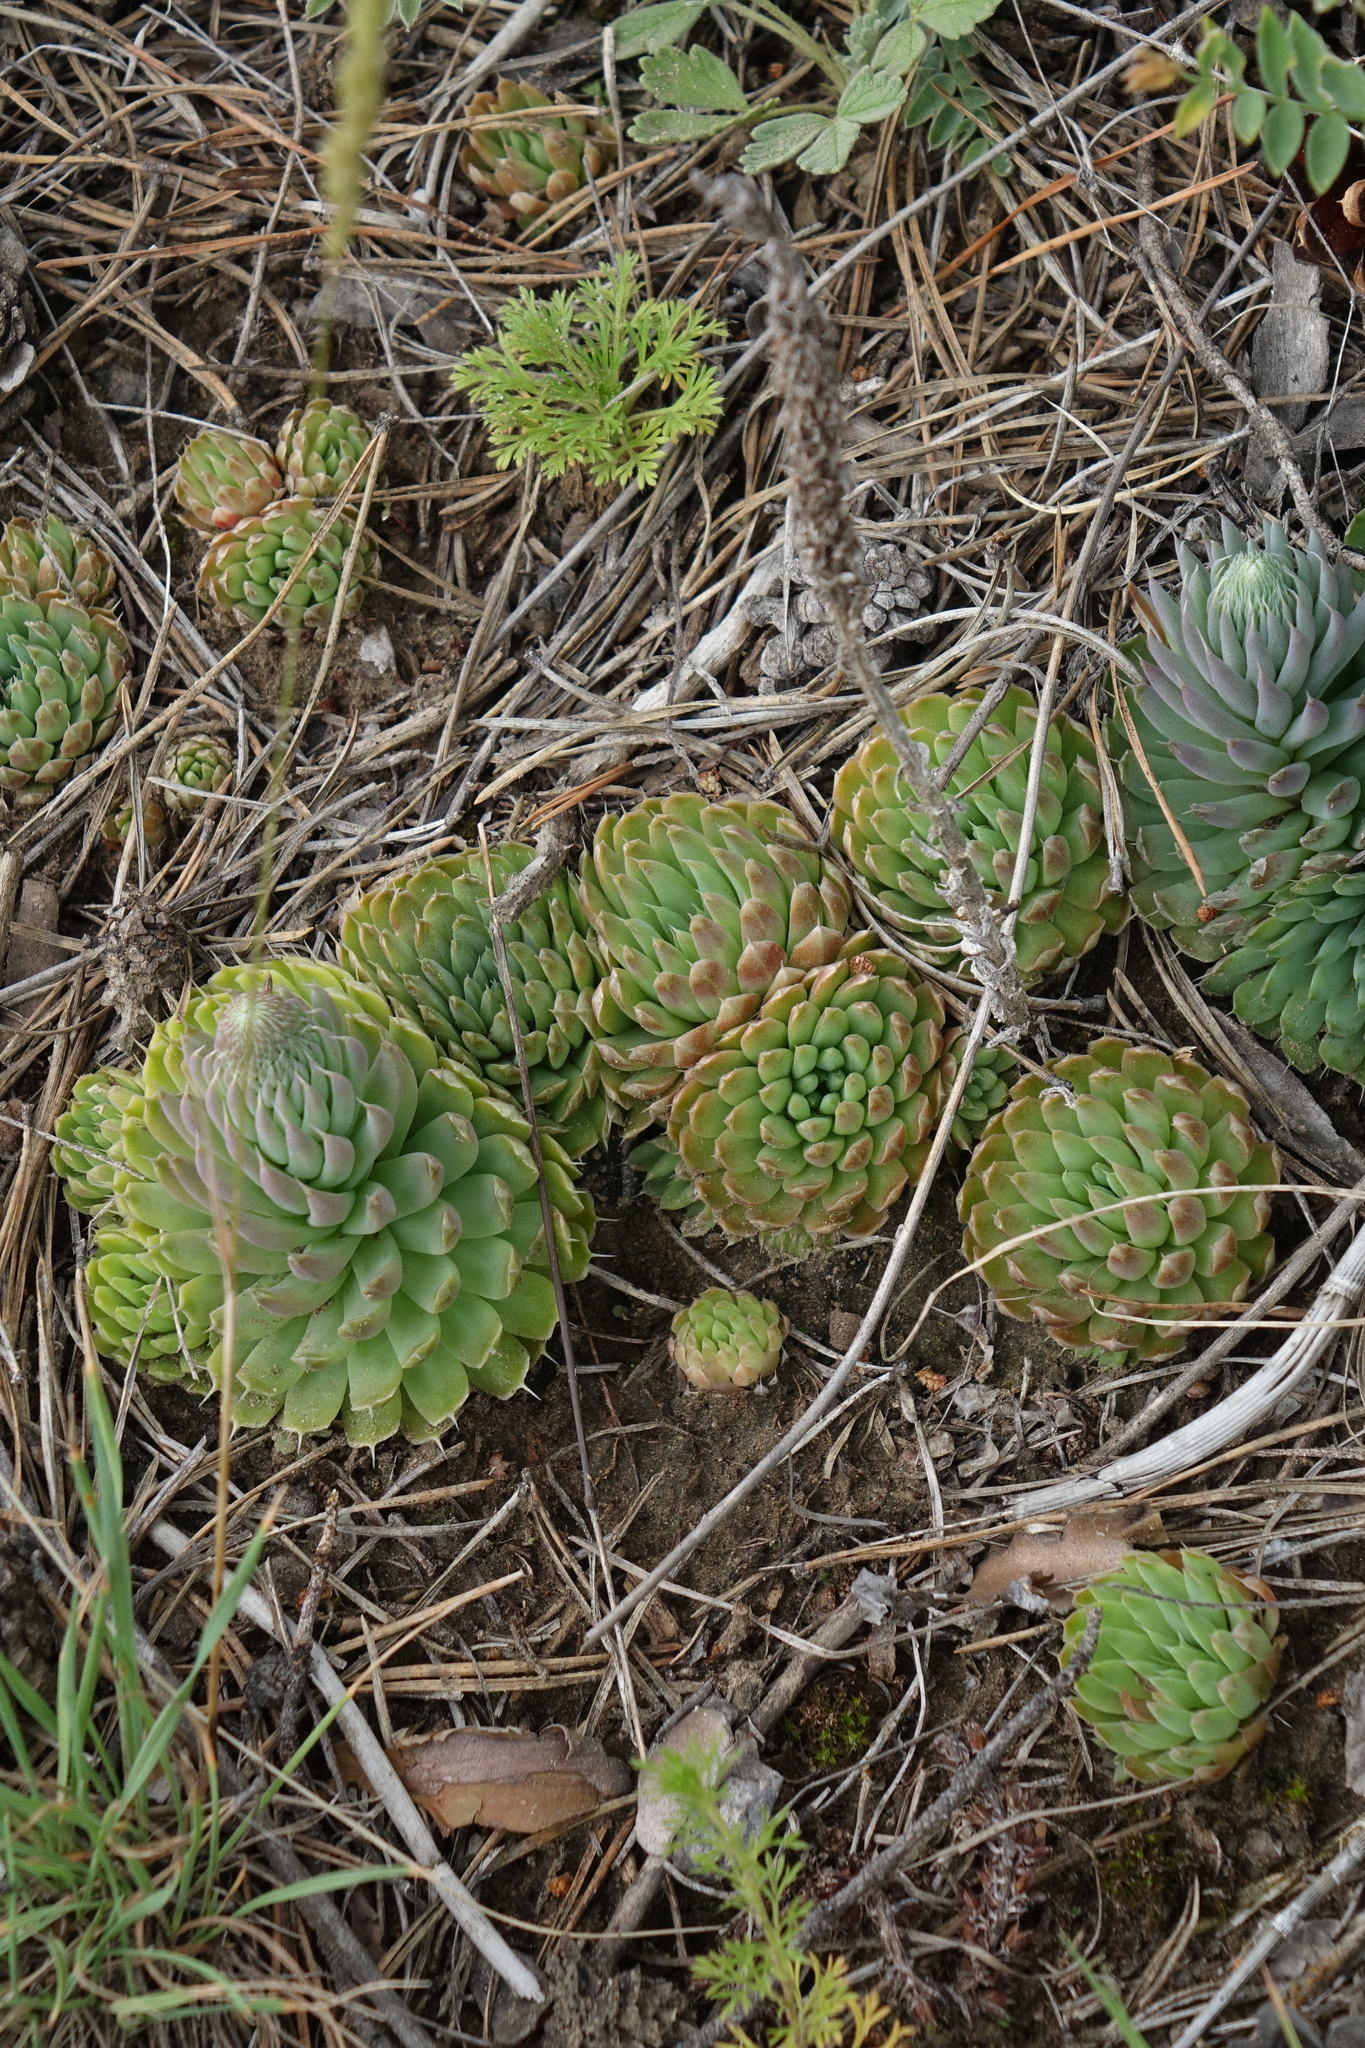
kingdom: Plantae
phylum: Tracheophyta
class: Magnoliopsida
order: Saxifragales
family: Crassulaceae
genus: Orostachys
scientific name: Orostachys spinosa
